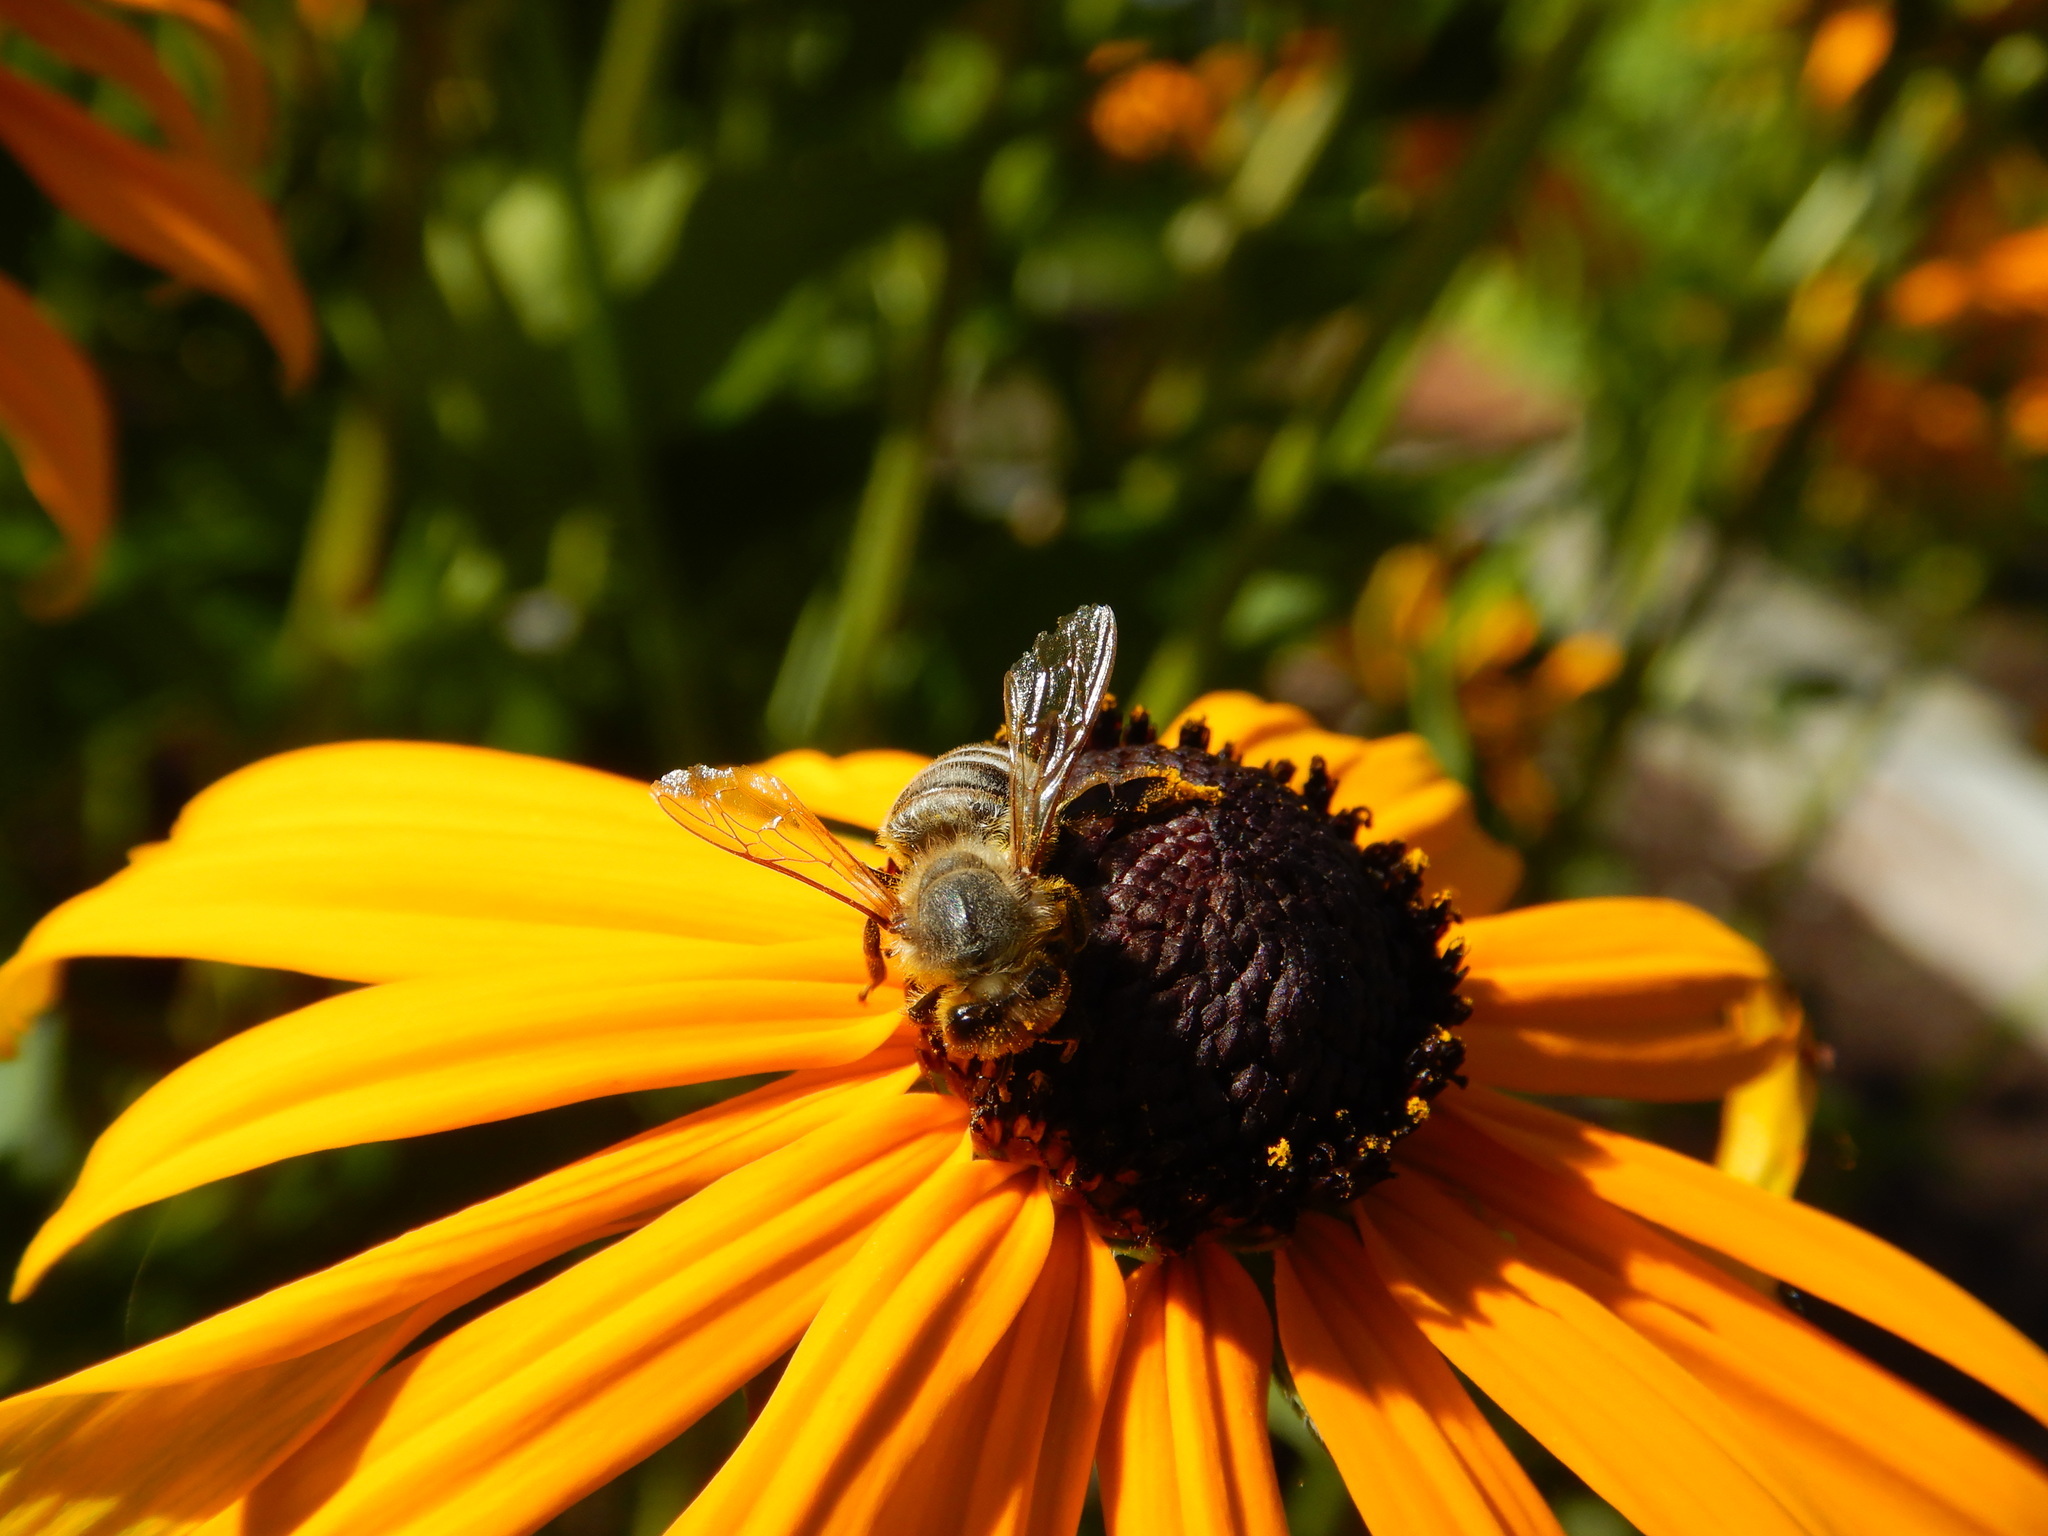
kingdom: Animalia
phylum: Arthropoda
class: Insecta
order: Hymenoptera
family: Apidae
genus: Apis
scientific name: Apis mellifera
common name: Honey bee
